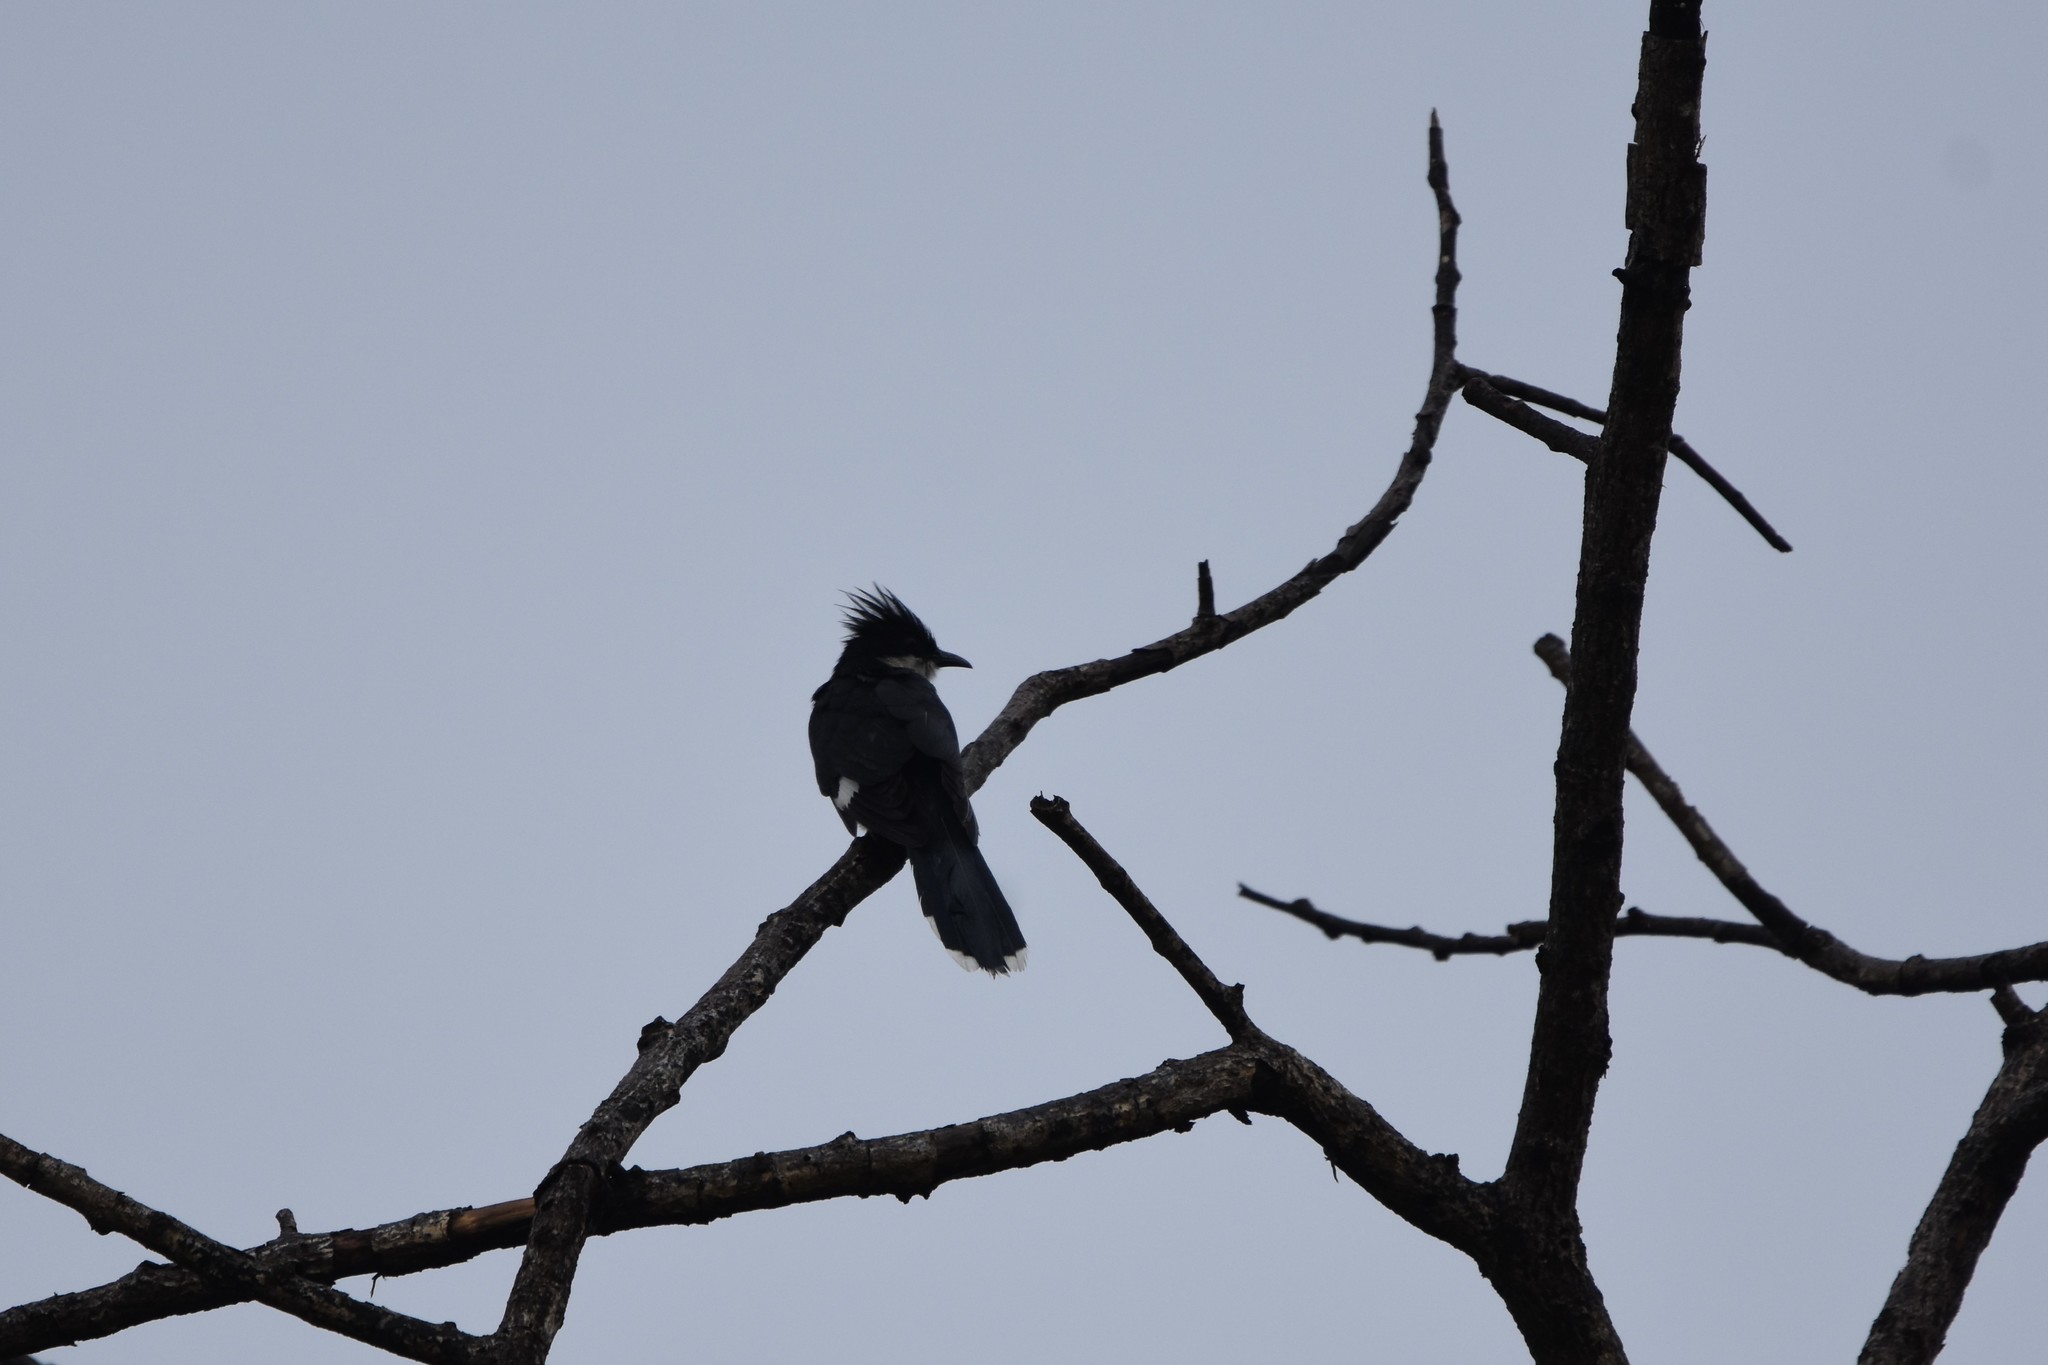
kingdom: Animalia
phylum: Chordata
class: Aves
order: Cuculiformes
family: Cuculidae
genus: Clamator
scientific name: Clamator jacobinus
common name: Jacobin cuckoo
